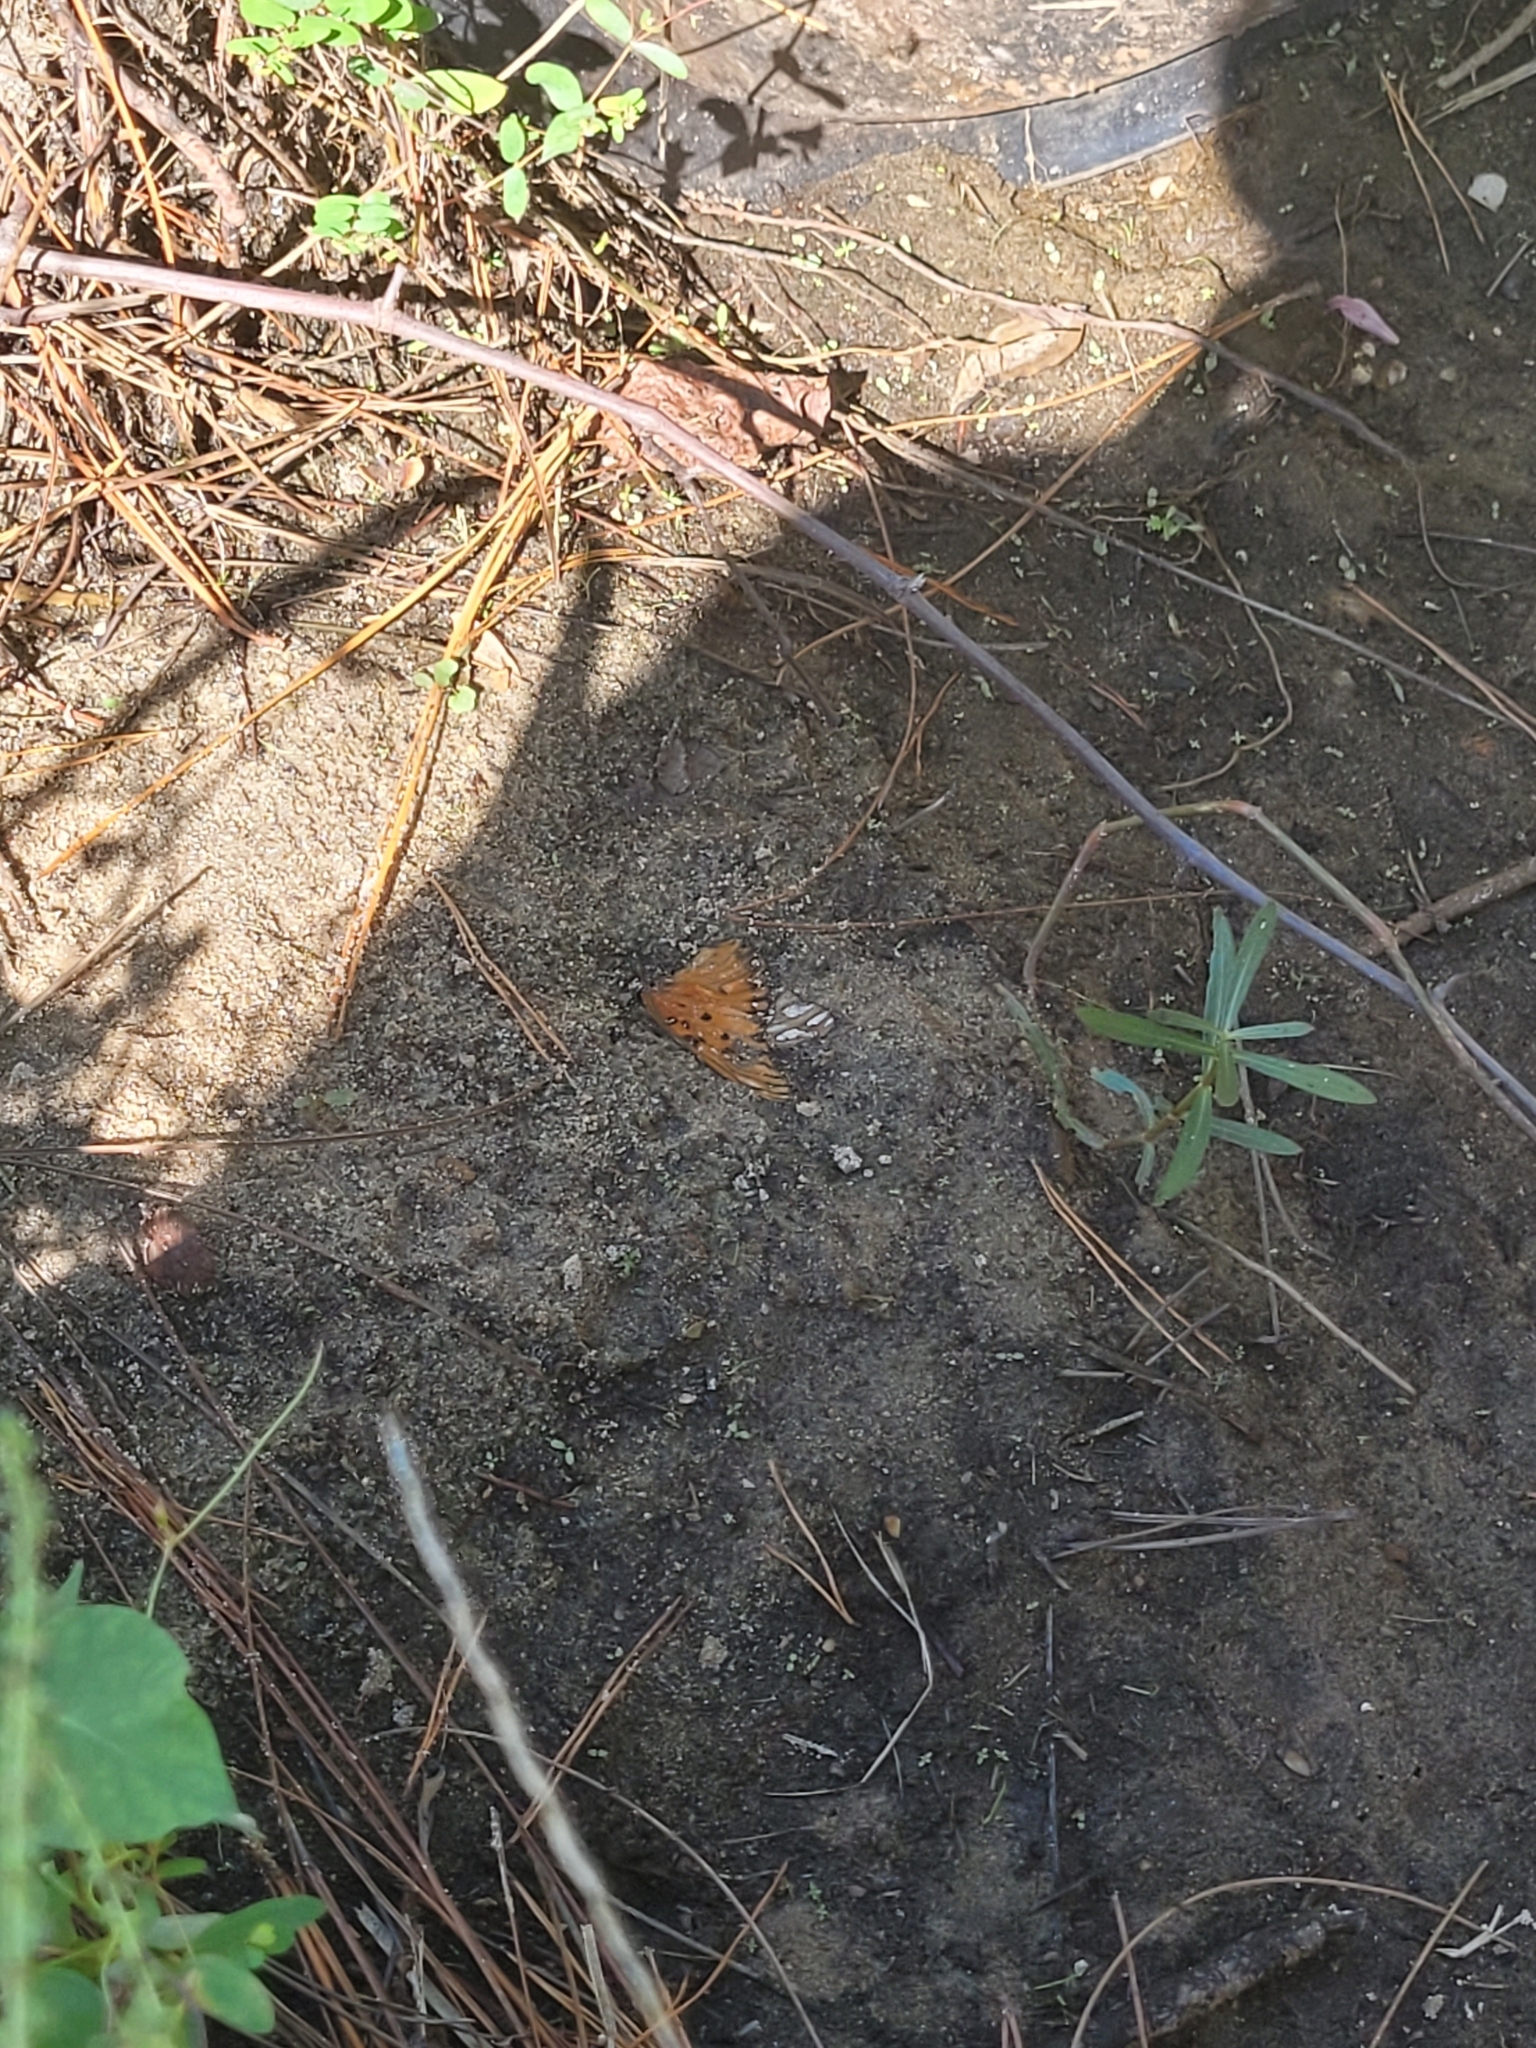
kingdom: Animalia
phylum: Arthropoda
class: Insecta
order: Lepidoptera
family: Nymphalidae
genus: Dione
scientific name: Dione vanillae
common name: Gulf fritillary
